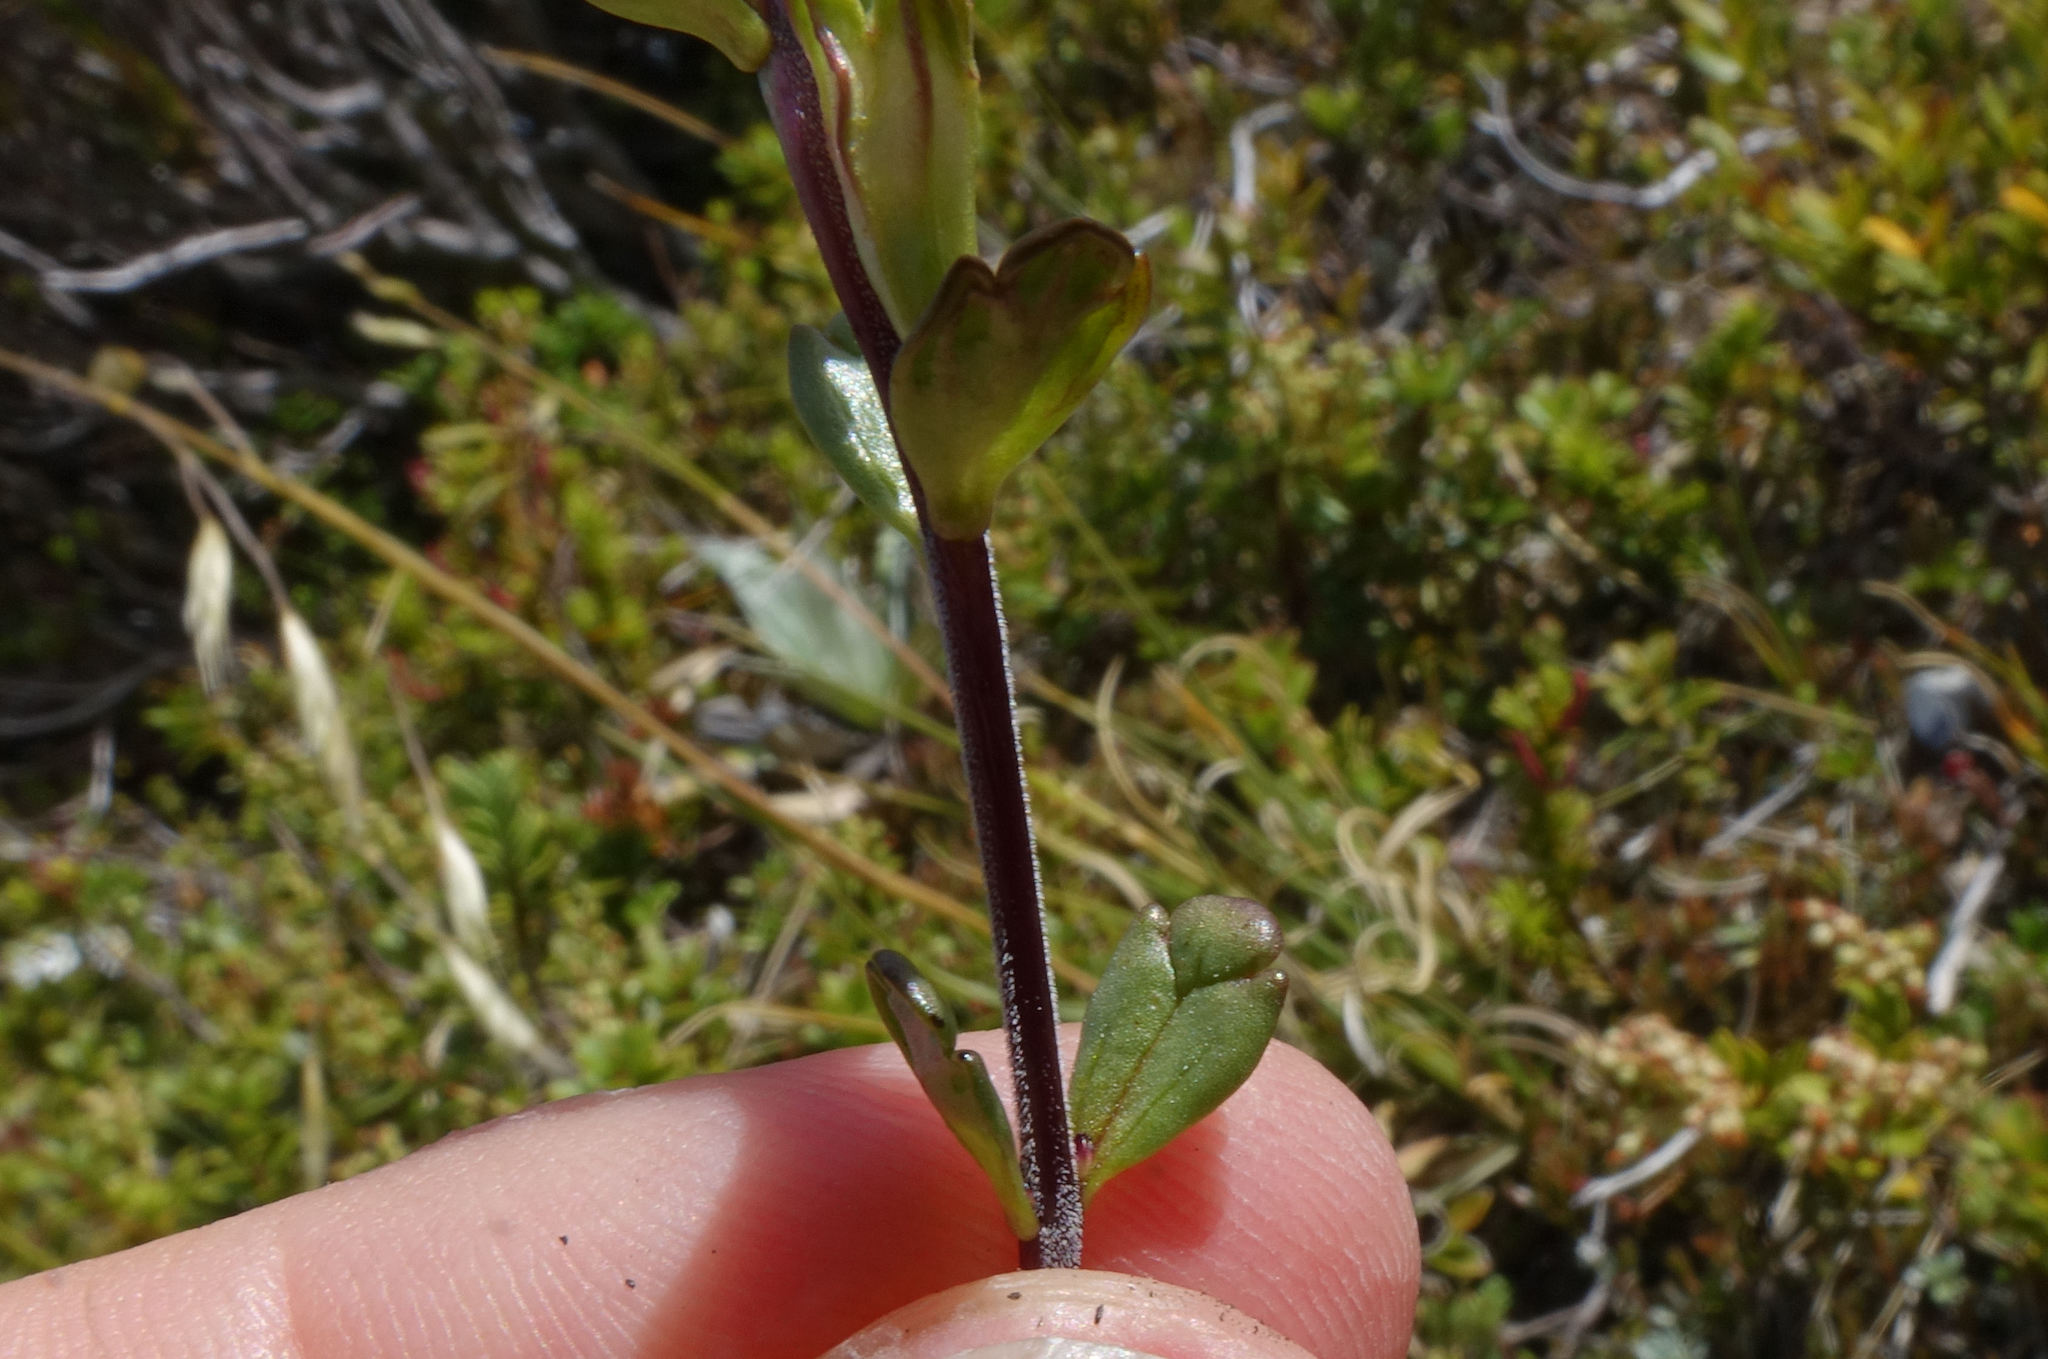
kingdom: Plantae
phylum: Tracheophyta
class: Magnoliopsida
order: Lamiales
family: Orobanchaceae
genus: Euphrasia
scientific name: Euphrasia laingii
